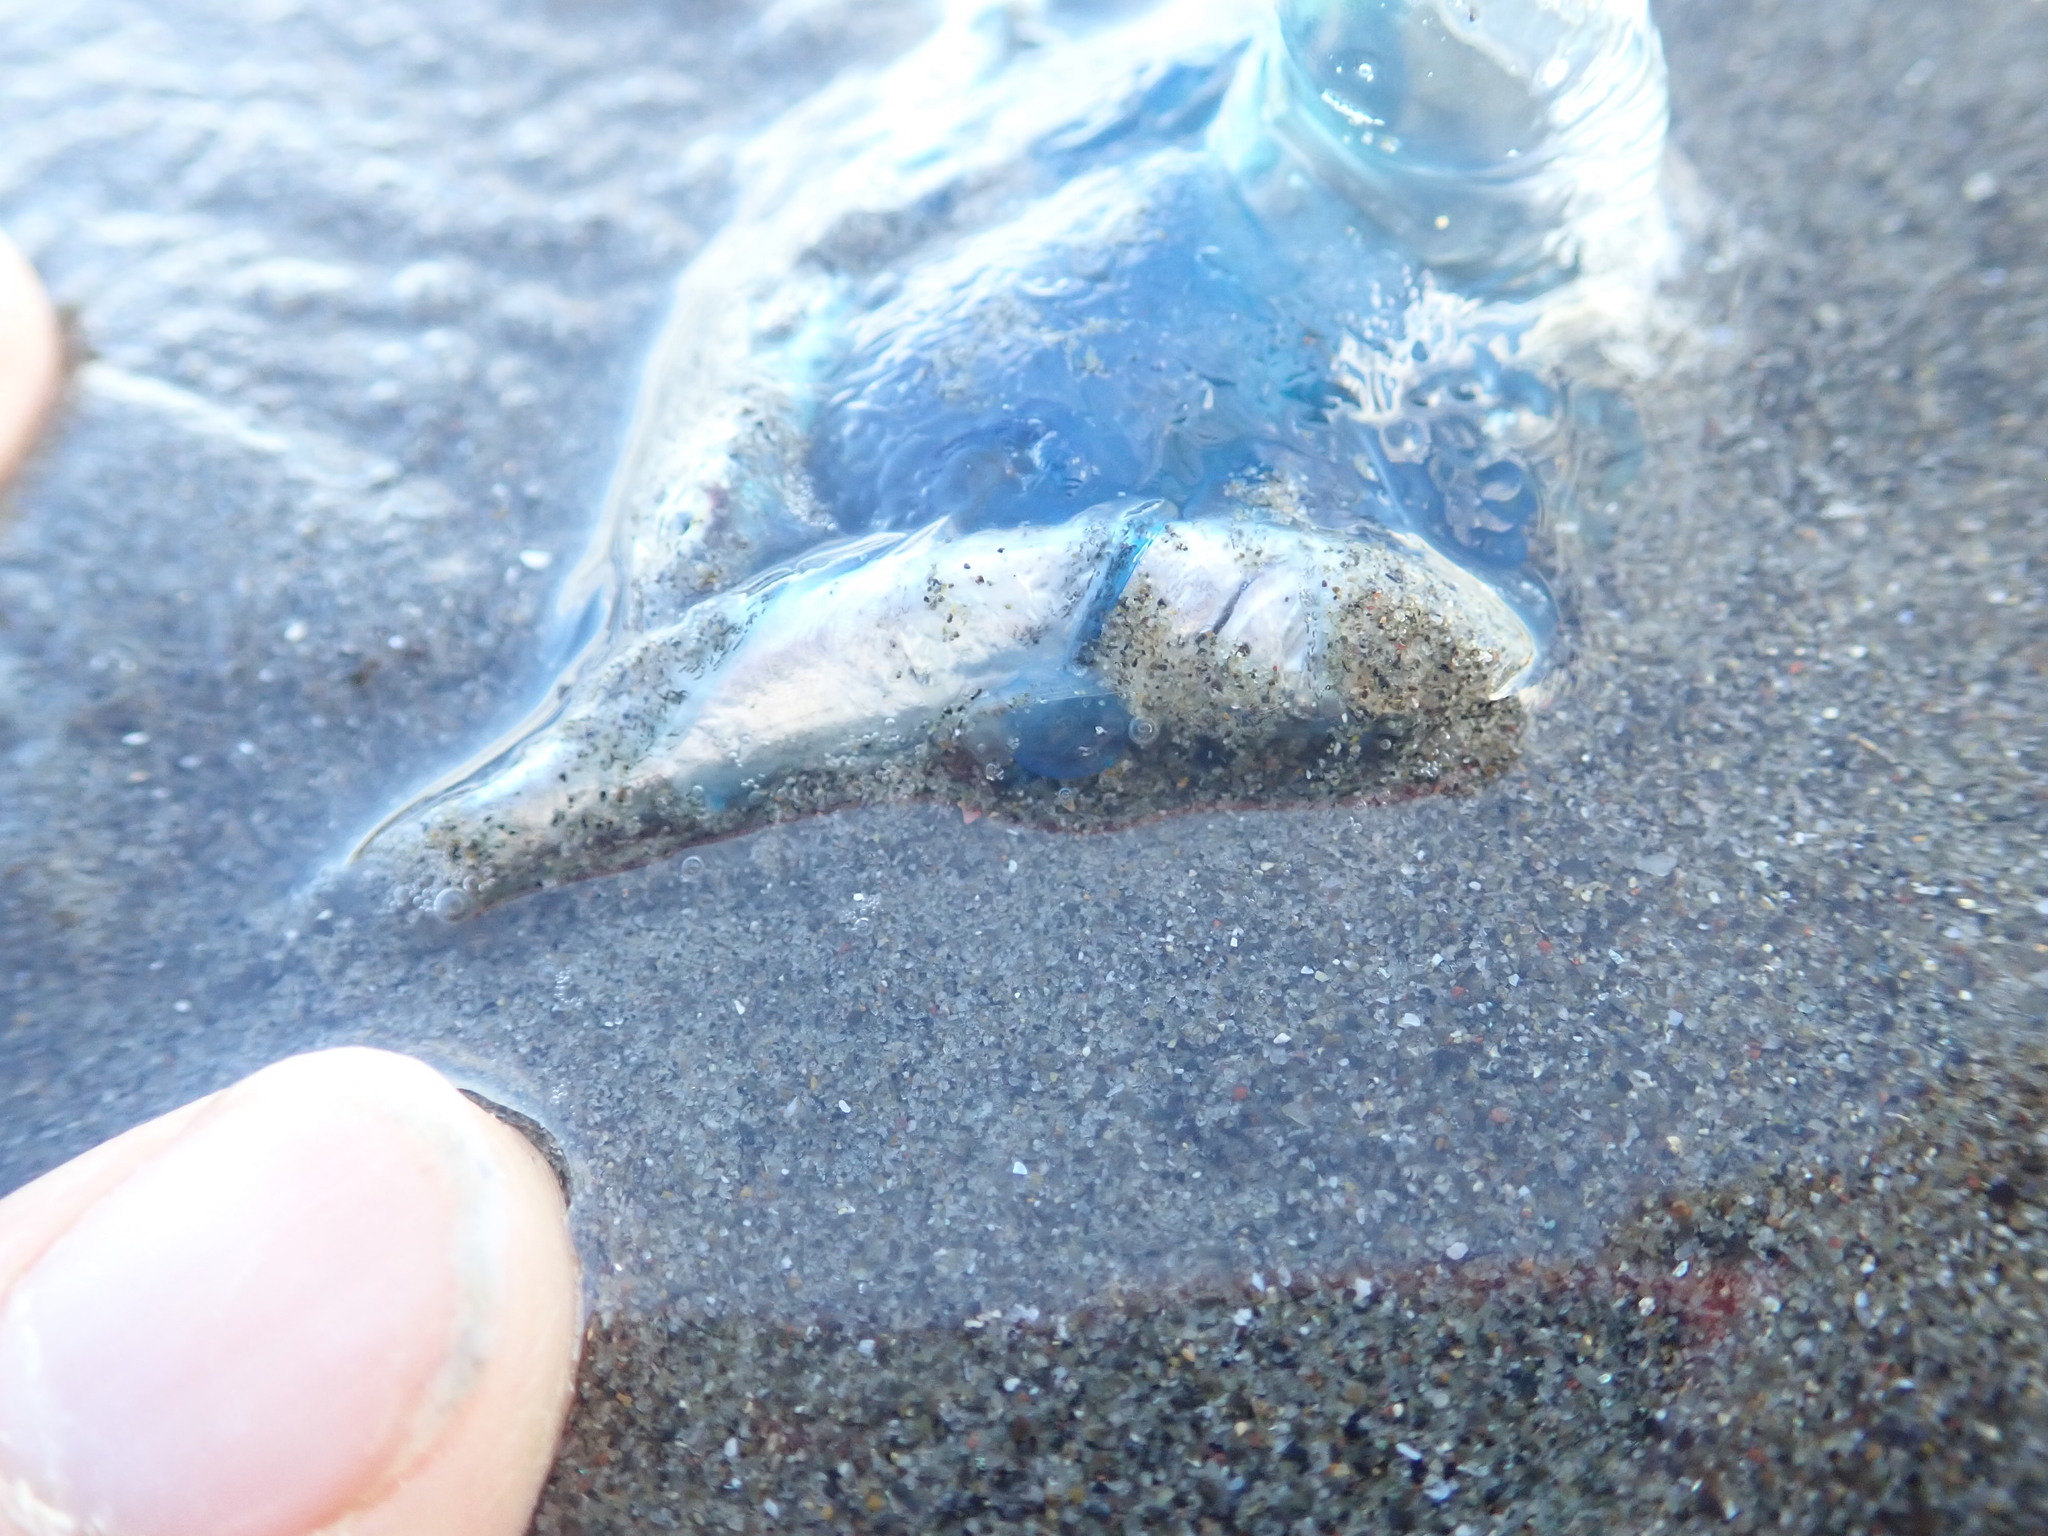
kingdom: Animalia
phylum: Cnidaria
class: Hydrozoa
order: Siphonophorae
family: Physaliidae
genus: Physalia
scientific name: Physalia physalis
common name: Portuguese man-of-war
